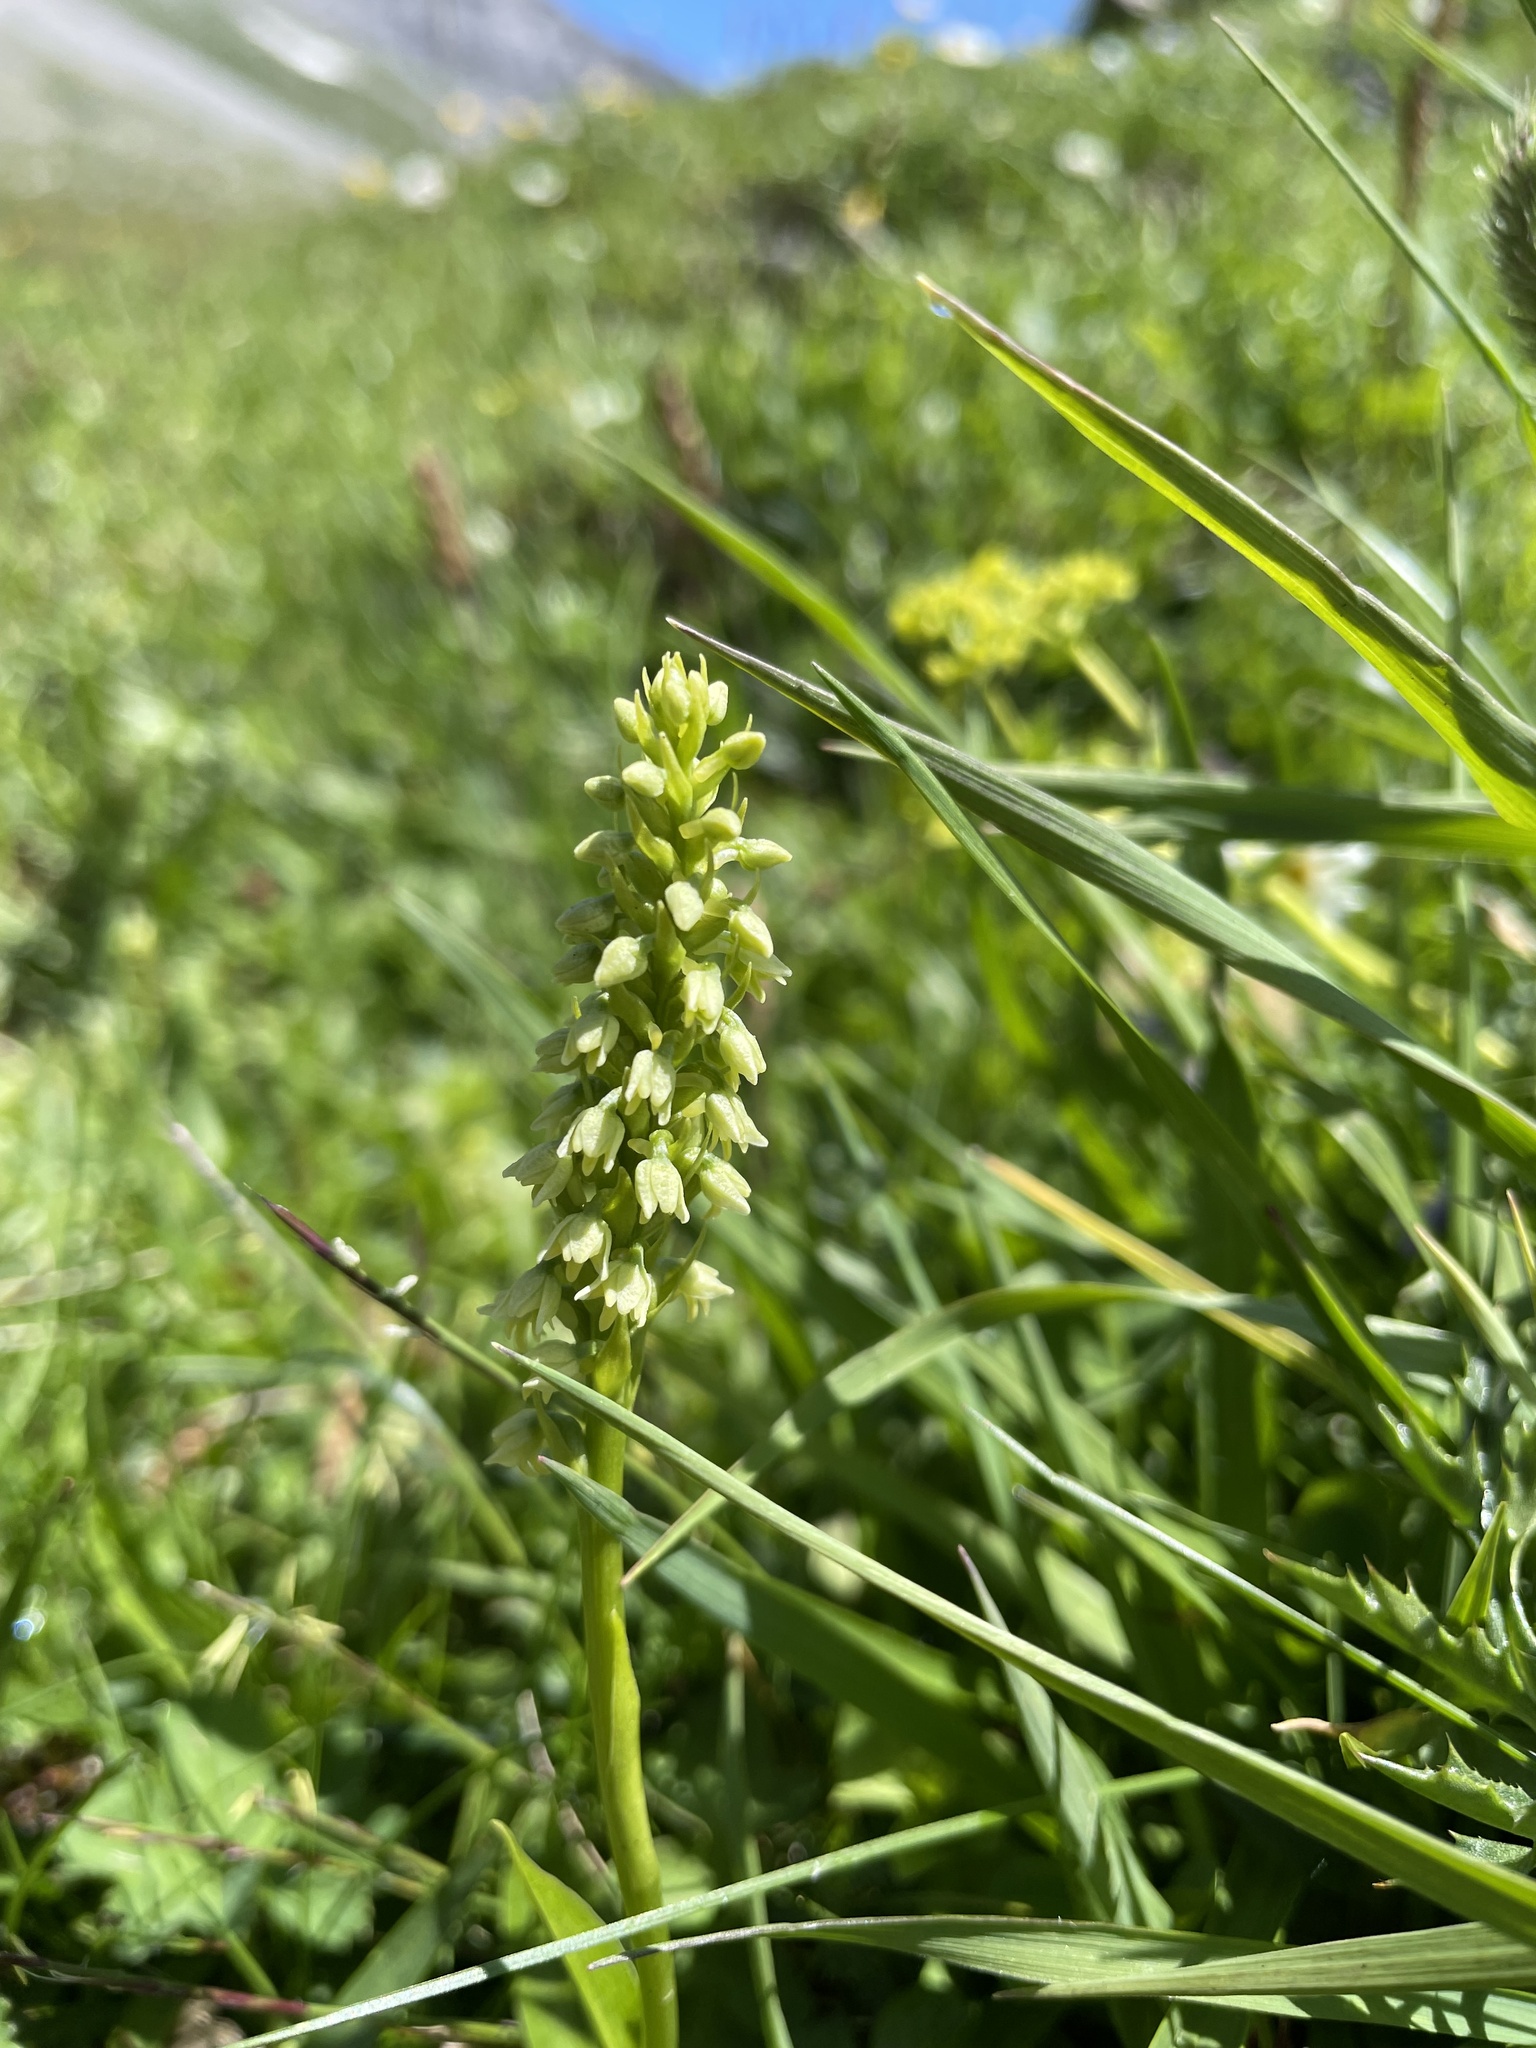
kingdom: Plantae
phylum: Tracheophyta
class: Liliopsida
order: Asparagales
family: Orchidaceae
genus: Pseudorchis
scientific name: Pseudorchis albida
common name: Small-white orchid
